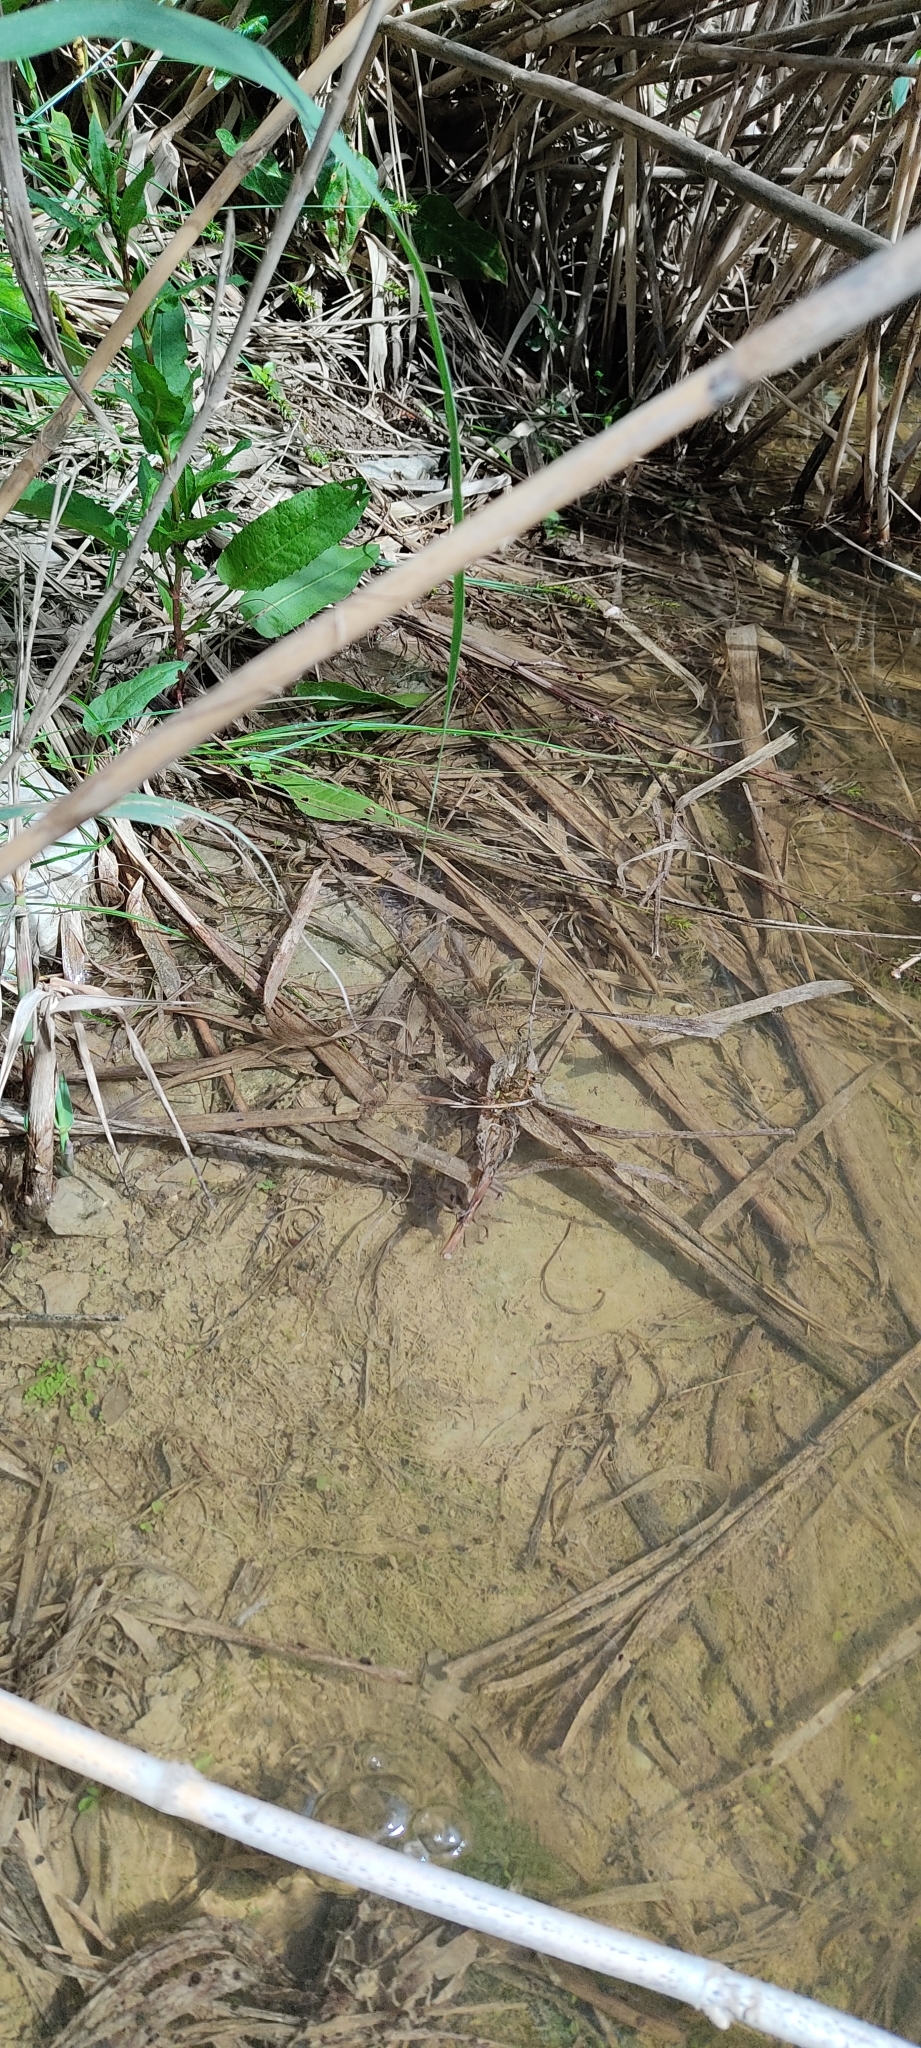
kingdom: Animalia
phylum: Chordata
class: Squamata
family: Colubridae
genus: Natrix
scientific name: Natrix maura
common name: Viperine water snake
